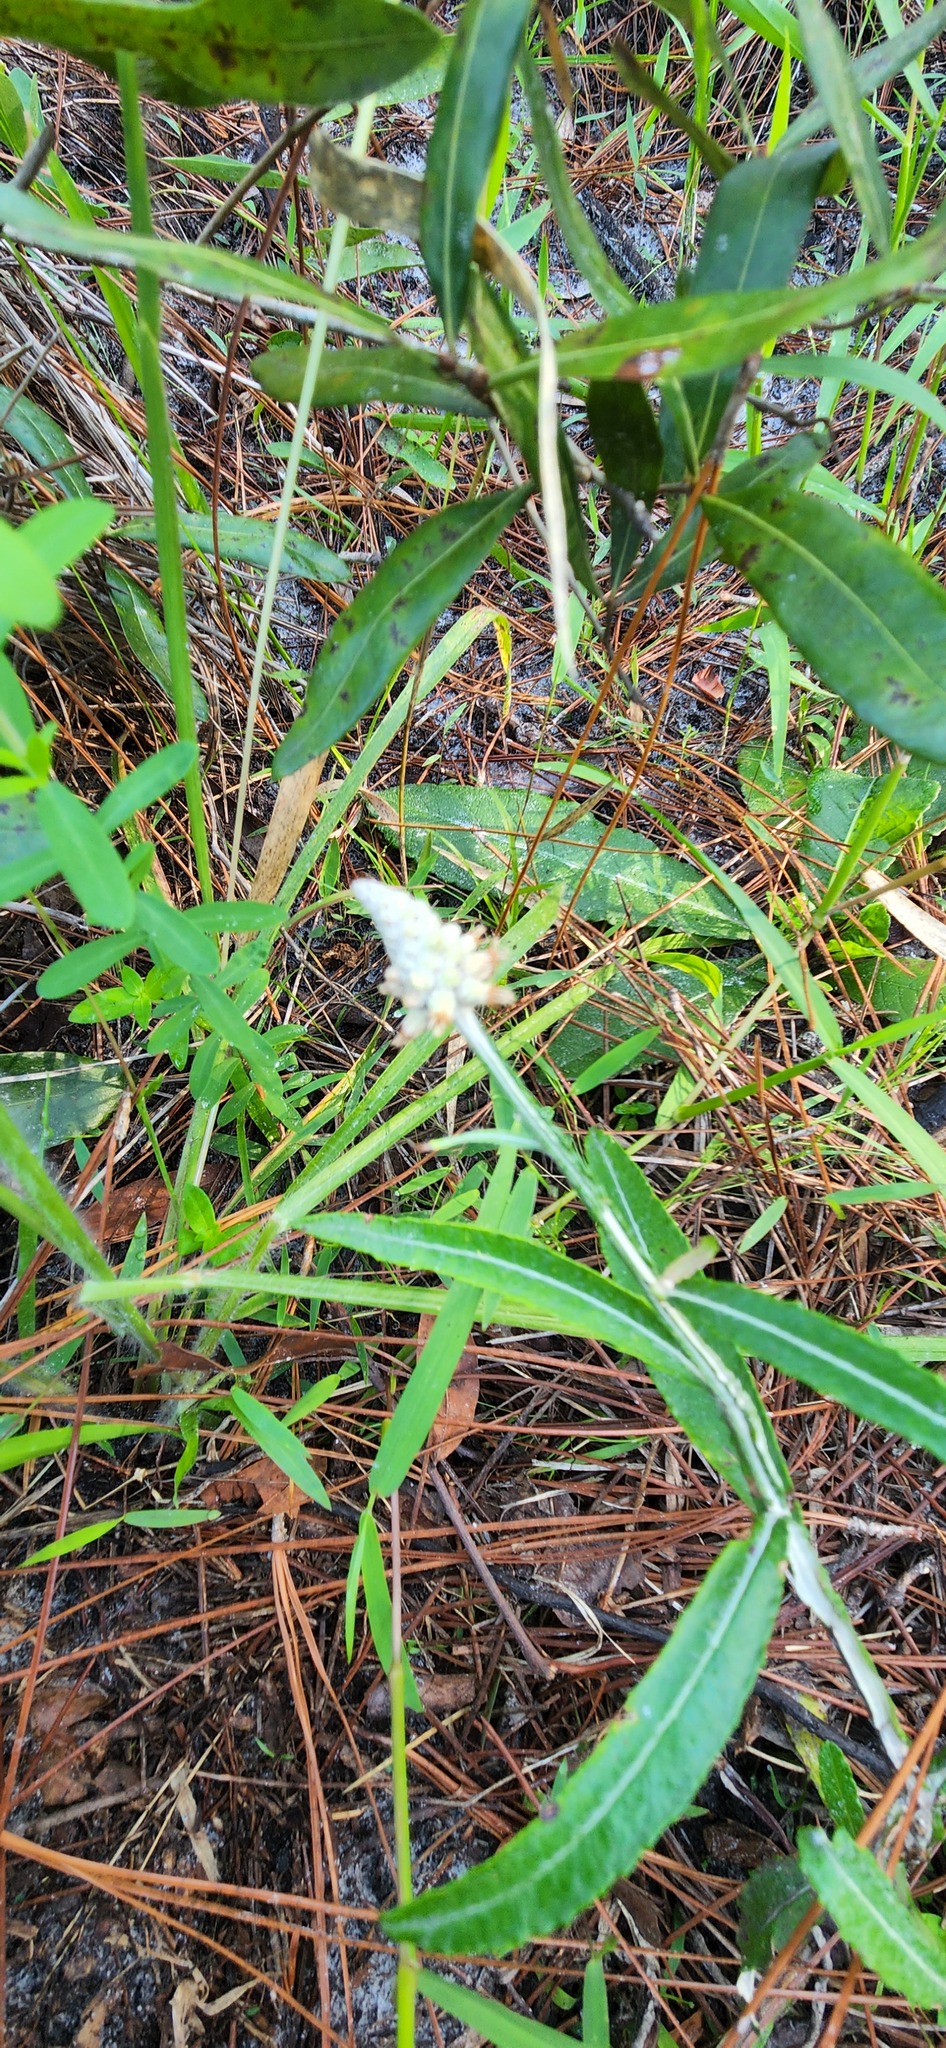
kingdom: Plantae
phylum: Tracheophyta
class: Magnoliopsida
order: Asterales
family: Asteraceae
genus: Pterocaulon
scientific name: Pterocaulon pycnostachyum
